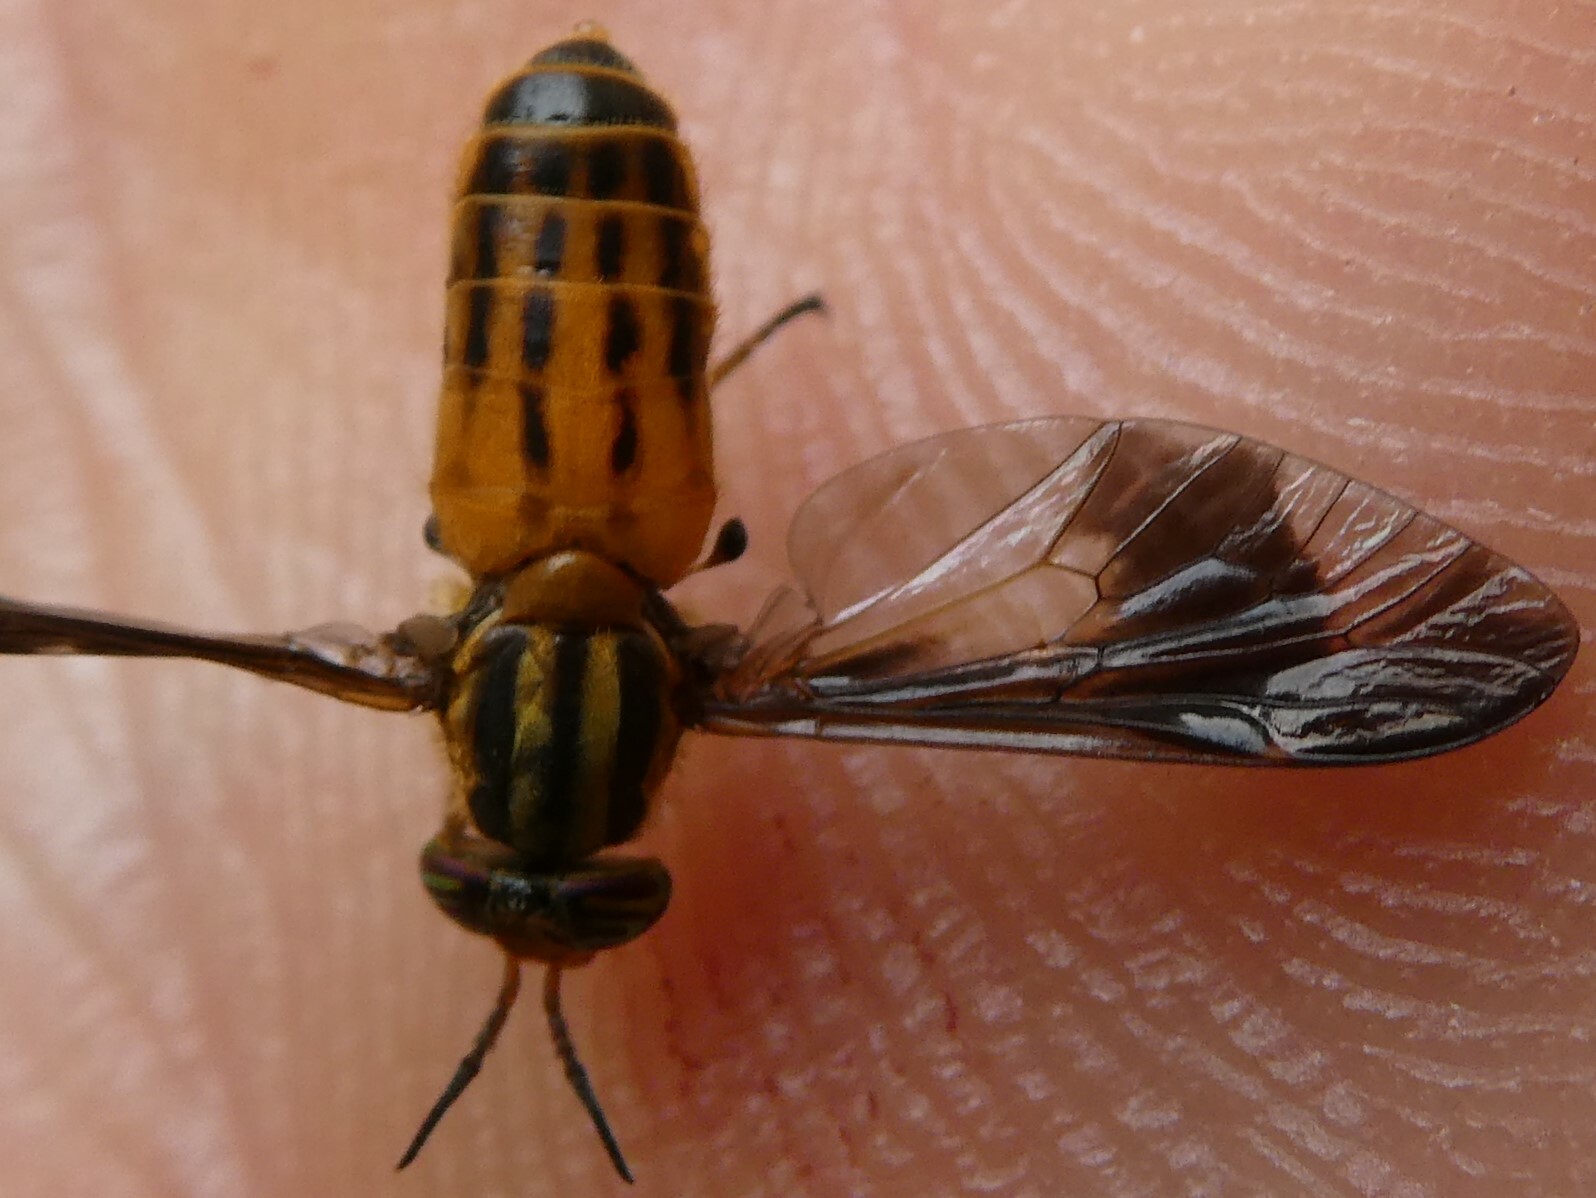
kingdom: Animalia
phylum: Arthropoda
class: Insecta
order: Diptera
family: Tabanidae
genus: Chrysops
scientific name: Chrysops vittatus
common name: Striped deer fly
